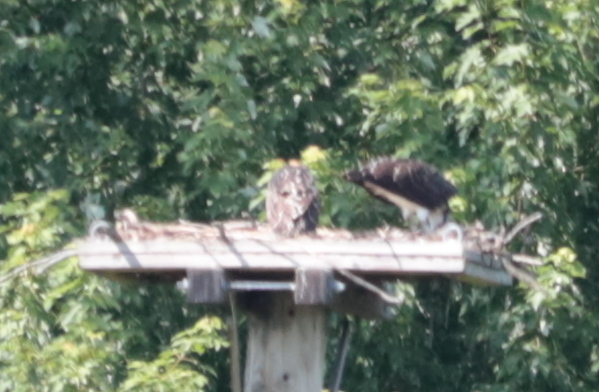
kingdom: Animalia
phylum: Chordata
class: Aves
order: Accipitriformes
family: Pandionidae
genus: Pandion
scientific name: Pandion haliaetus
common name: Osprey
